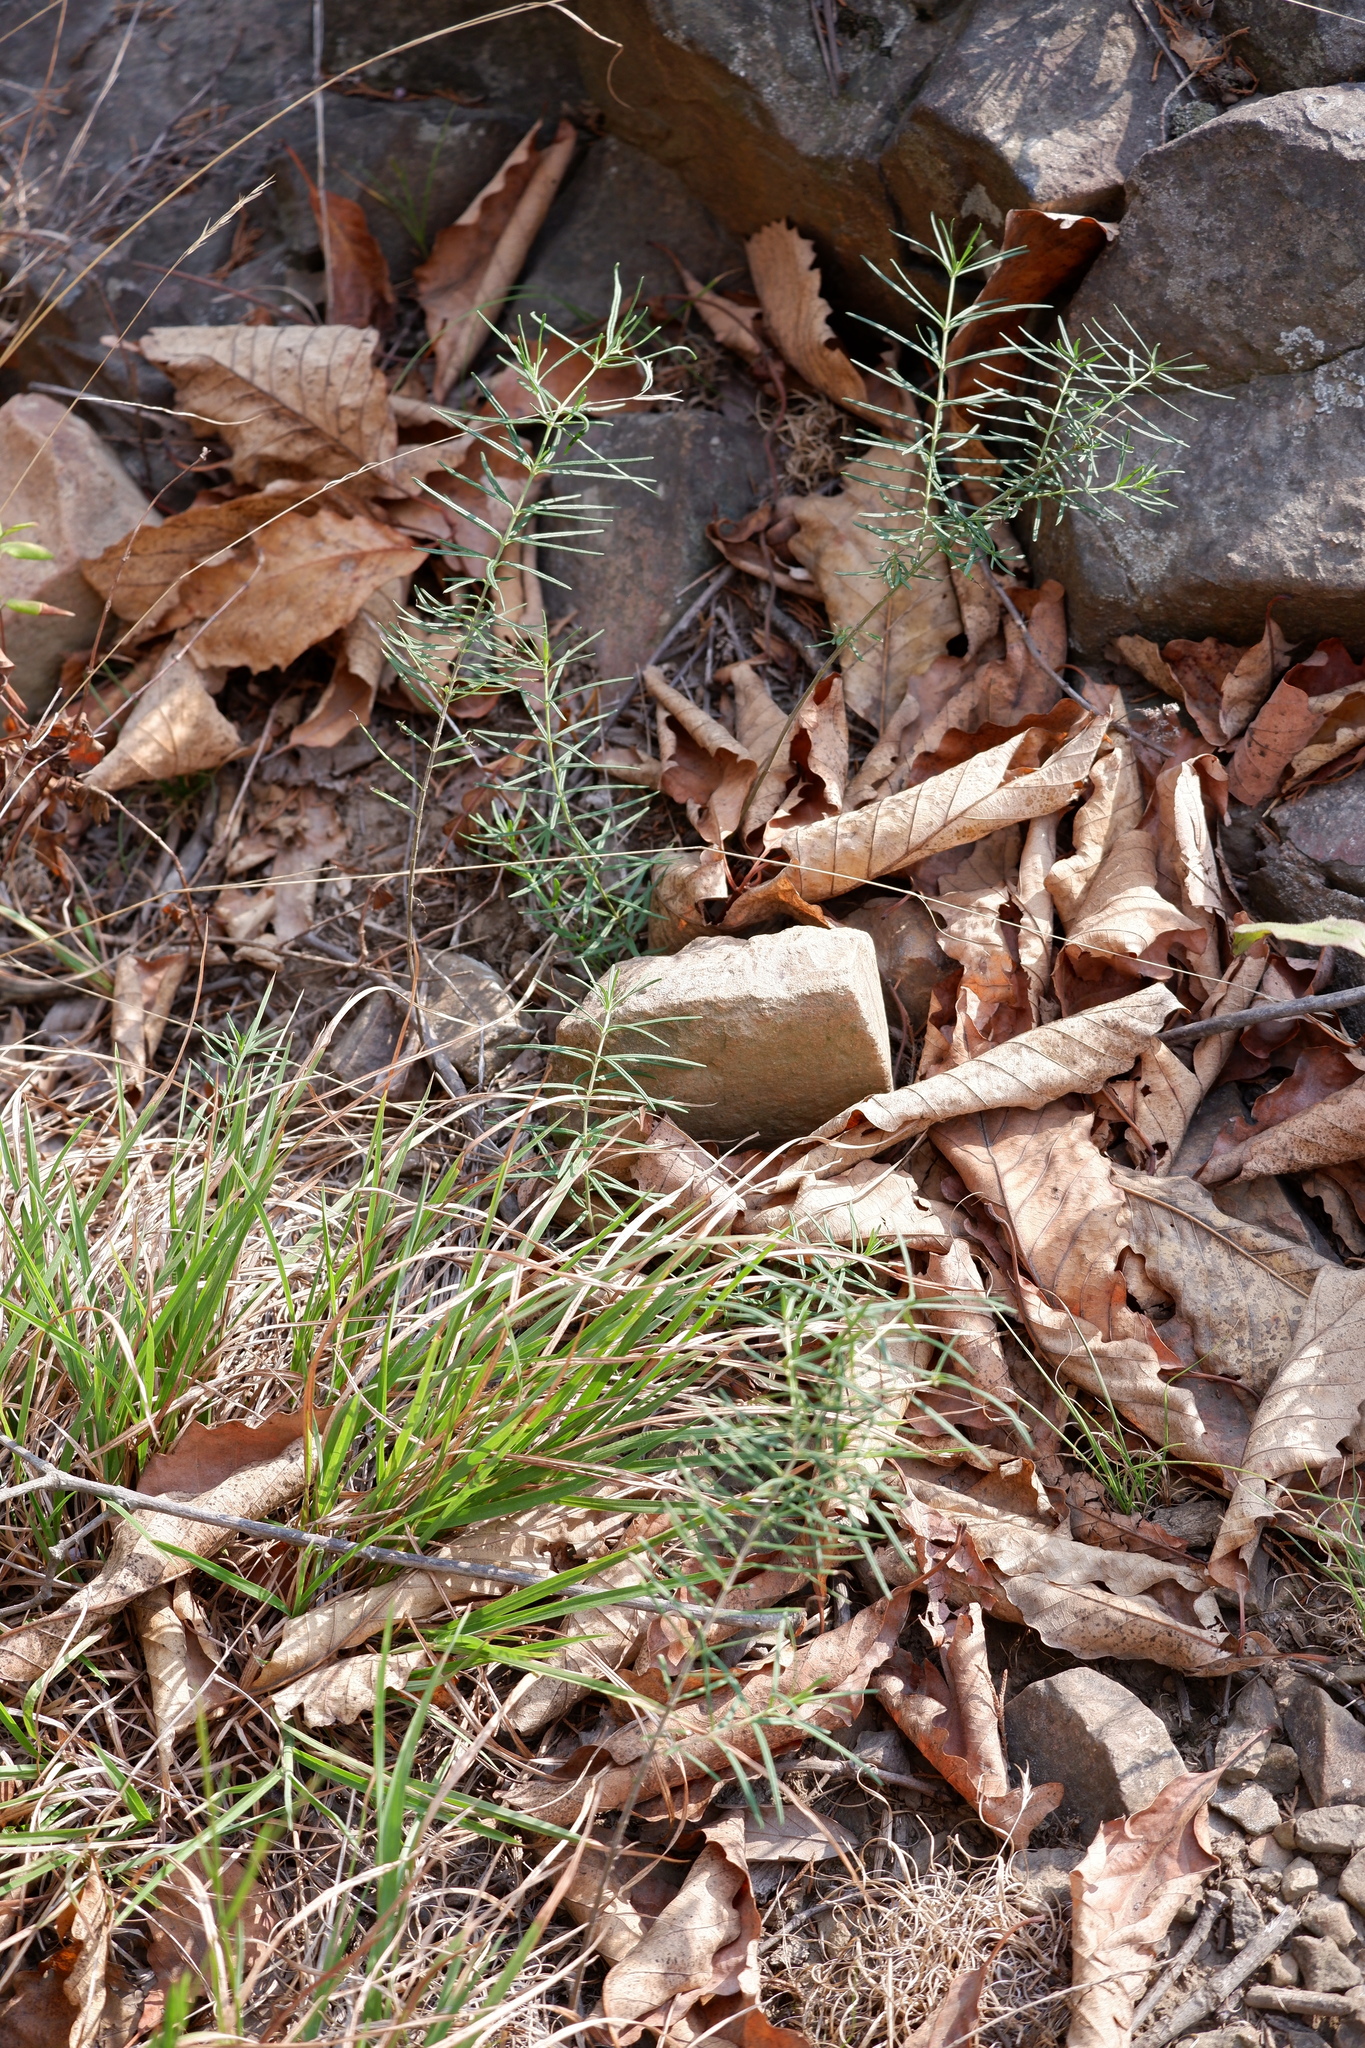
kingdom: Plantae
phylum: Tracheophyta
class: Magnoliopsida
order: Gentianales
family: Apocynaceae
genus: Asclepias
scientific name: Asclepias verticillata
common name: Eastern whorled milkweed
